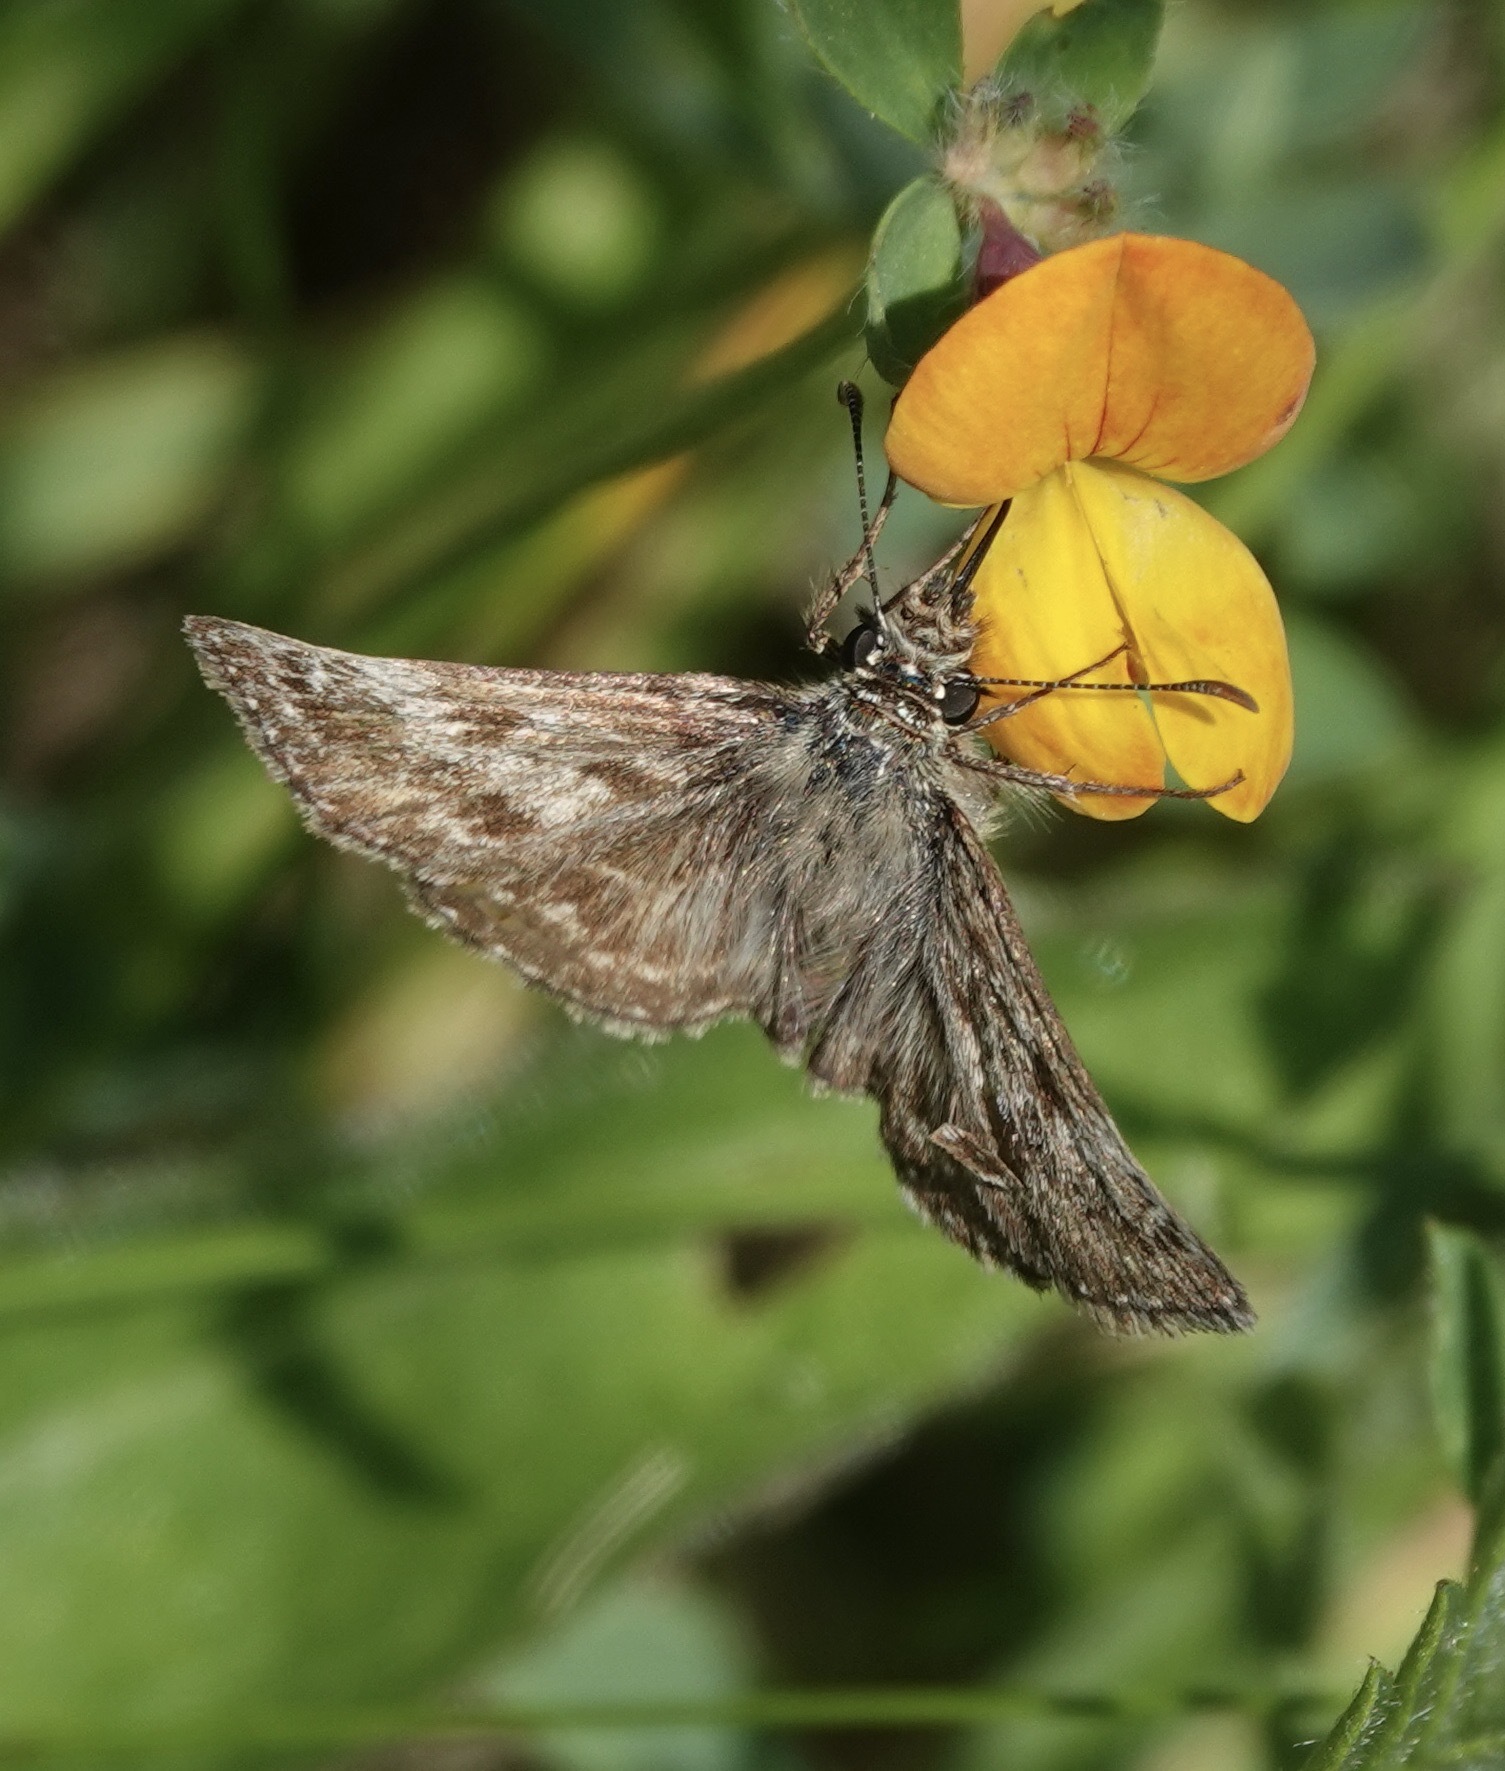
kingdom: Animalia
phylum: Arthropoda
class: Insecta
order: Lepidoptera
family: Hesperiidae
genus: Erynnis
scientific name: Erynnis tages
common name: Dingy skipper
